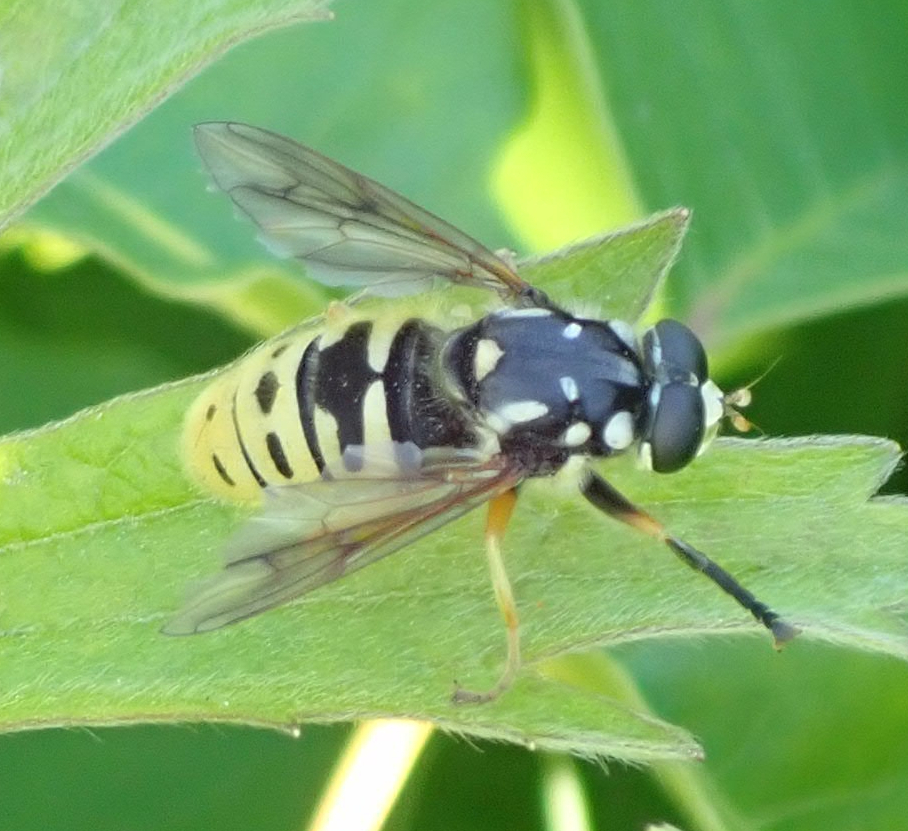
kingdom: Animalia
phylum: Arthropoda
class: Insecta
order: Diptera
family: Syrphidae
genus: Temnostoma
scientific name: Temnostoma alternans
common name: Wasp-like falsehorn
